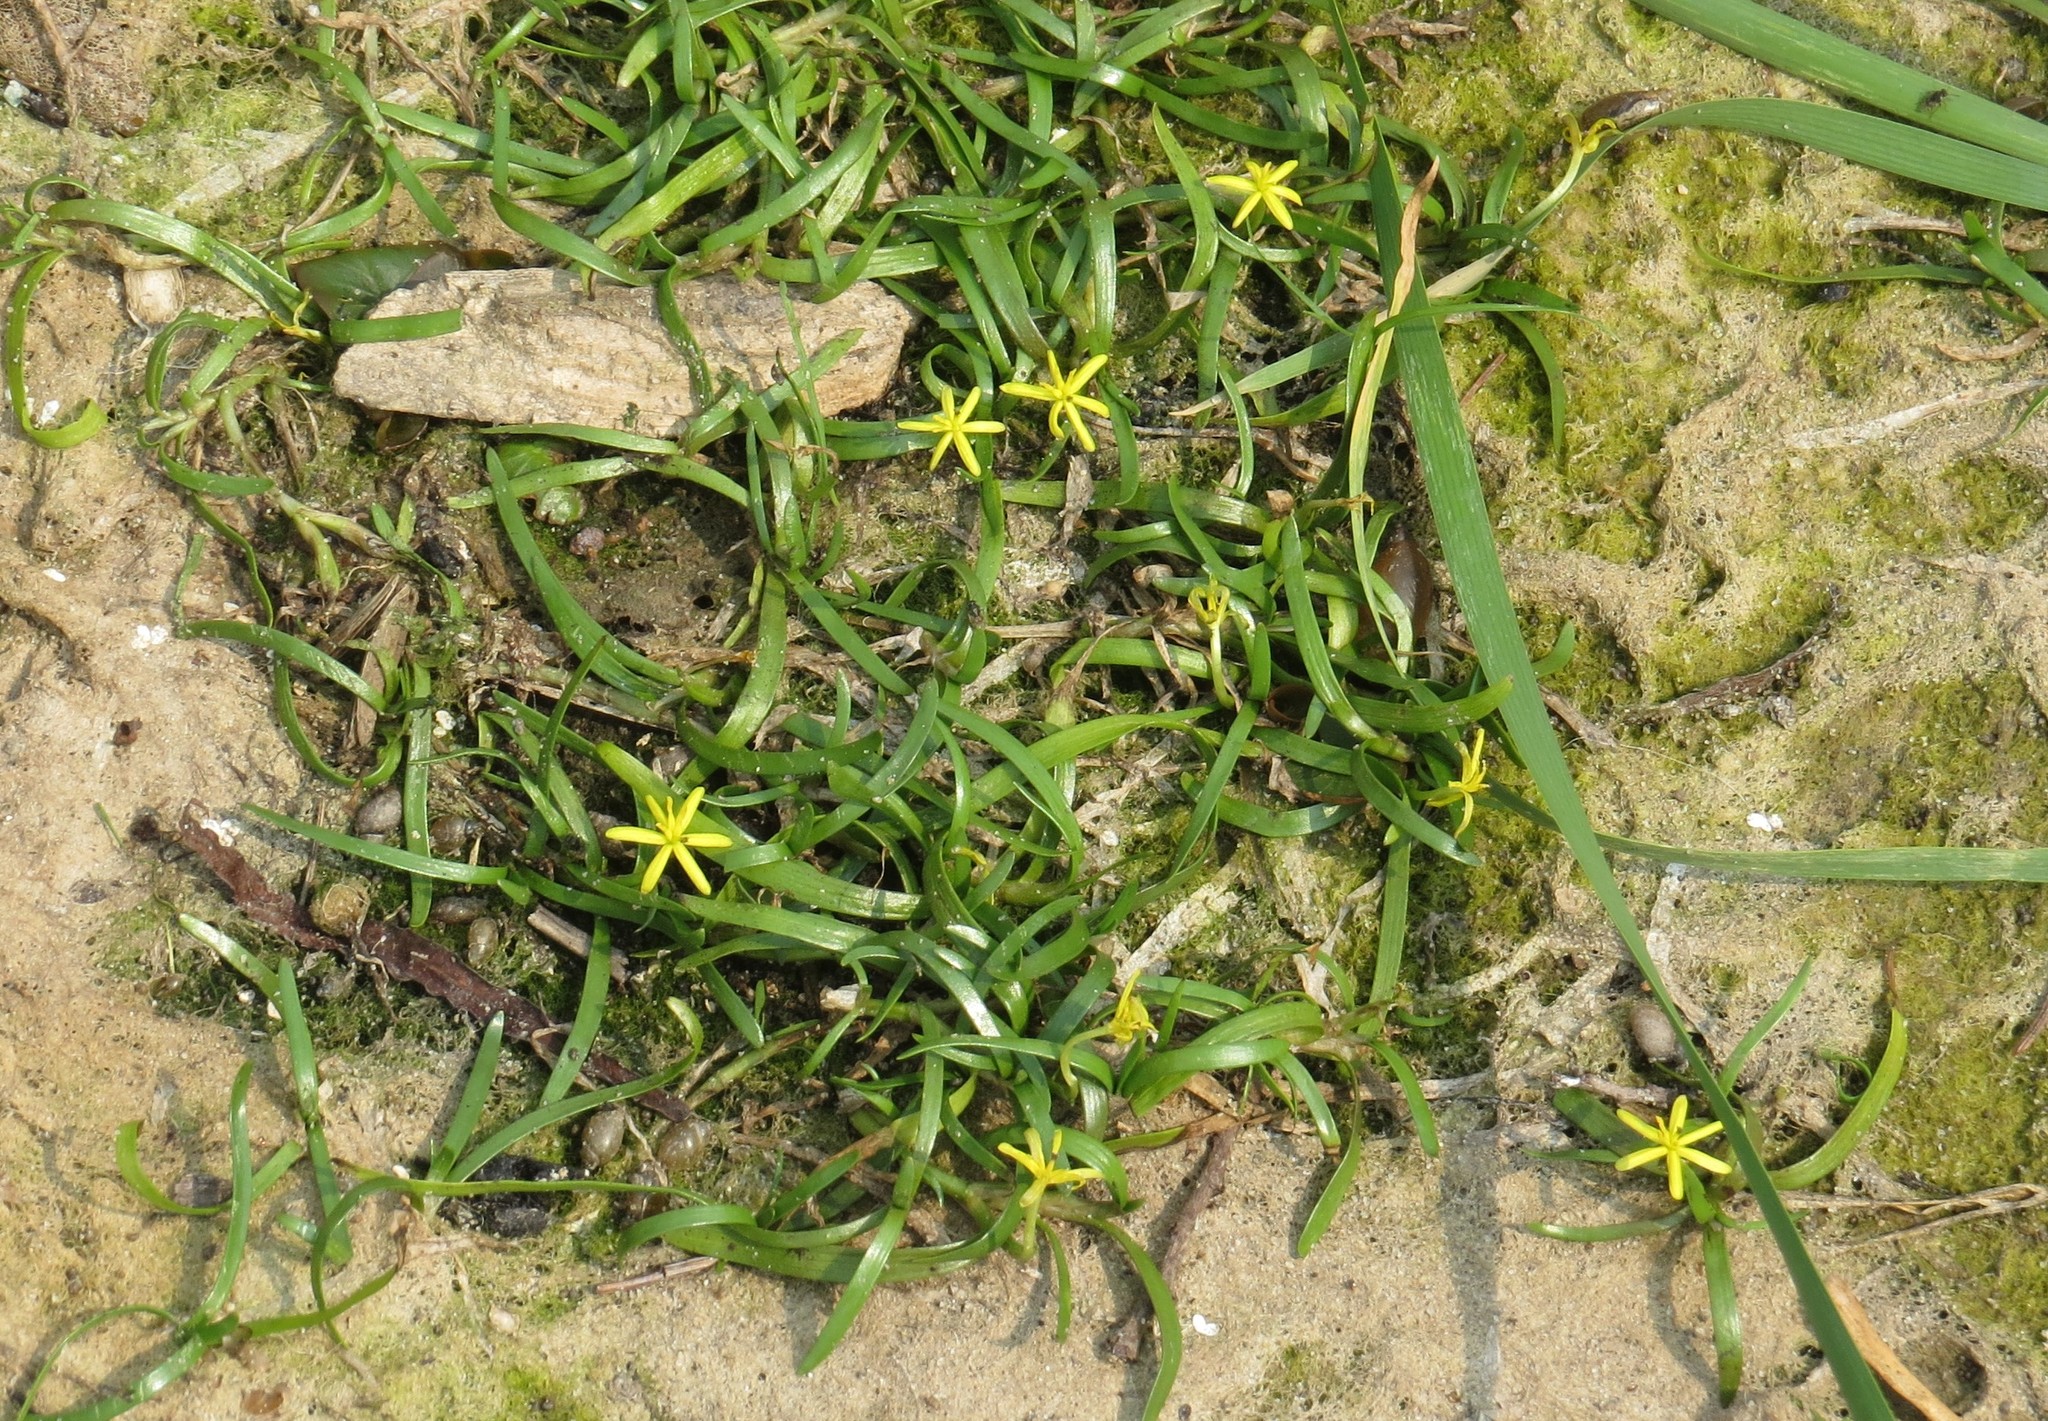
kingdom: Plantae
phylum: Tracheophyta
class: Liliopsida
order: Commelinales
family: Pontederiaceae
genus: Heteranthera
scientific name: Heteranthera dubia
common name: Grass-leaved mud plantain
